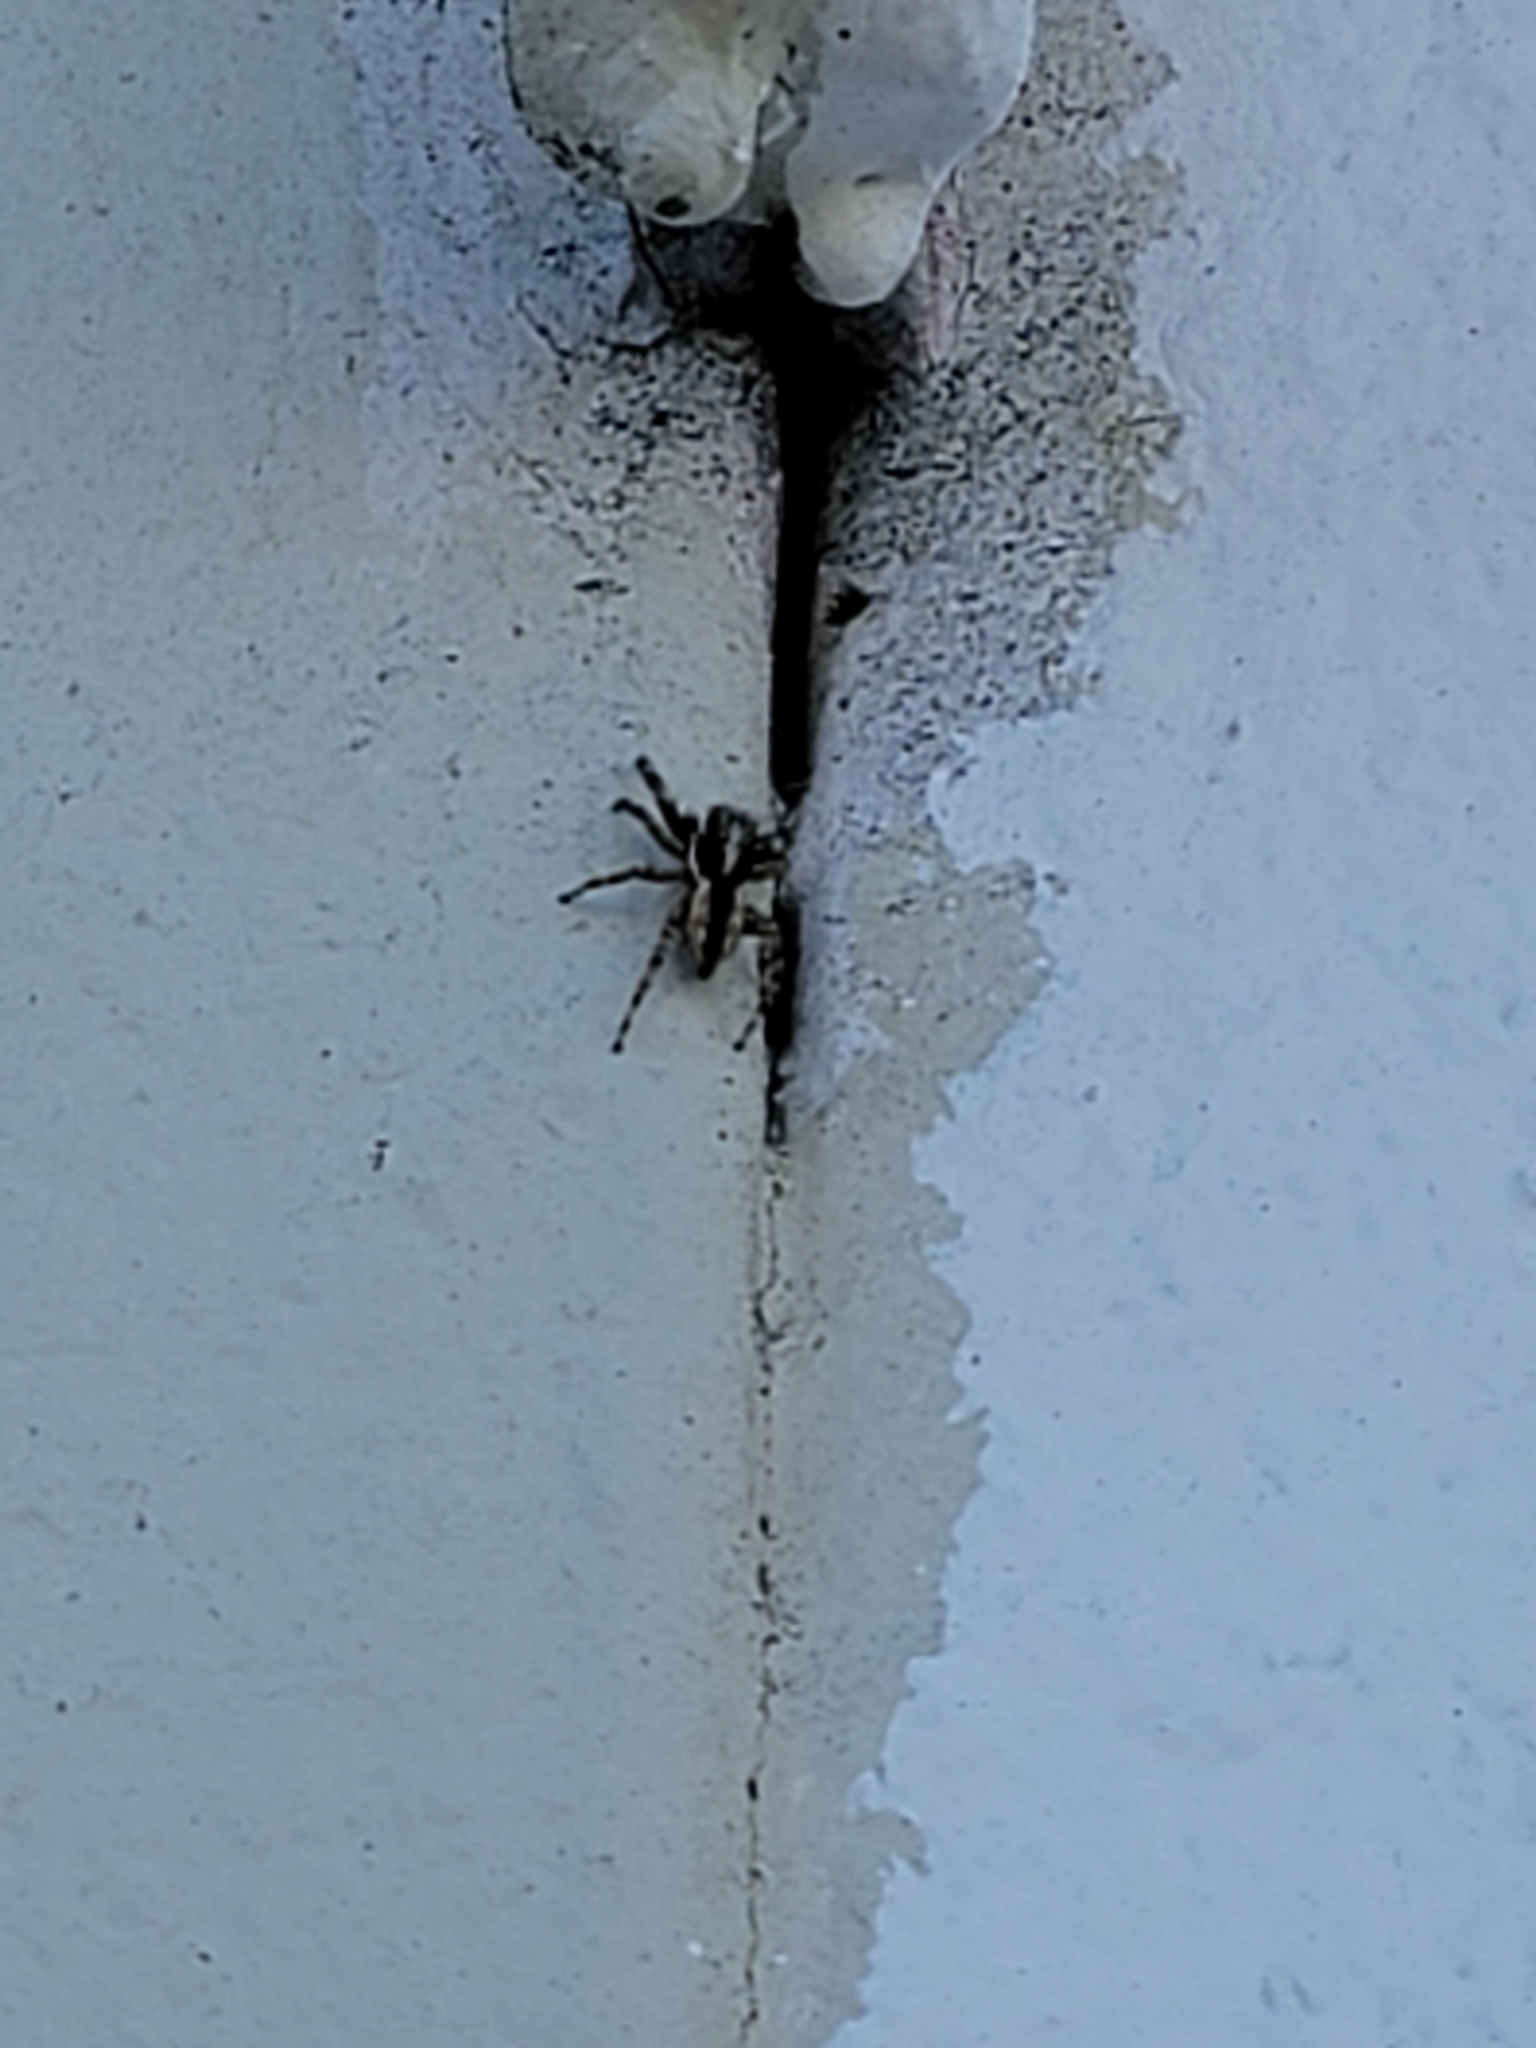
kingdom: Animalia
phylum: Arthropoda
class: Arachnida
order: Araneae
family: Salticidae
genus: Menemerus
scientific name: Menemerus bivittatus
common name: Gray wall jumper
